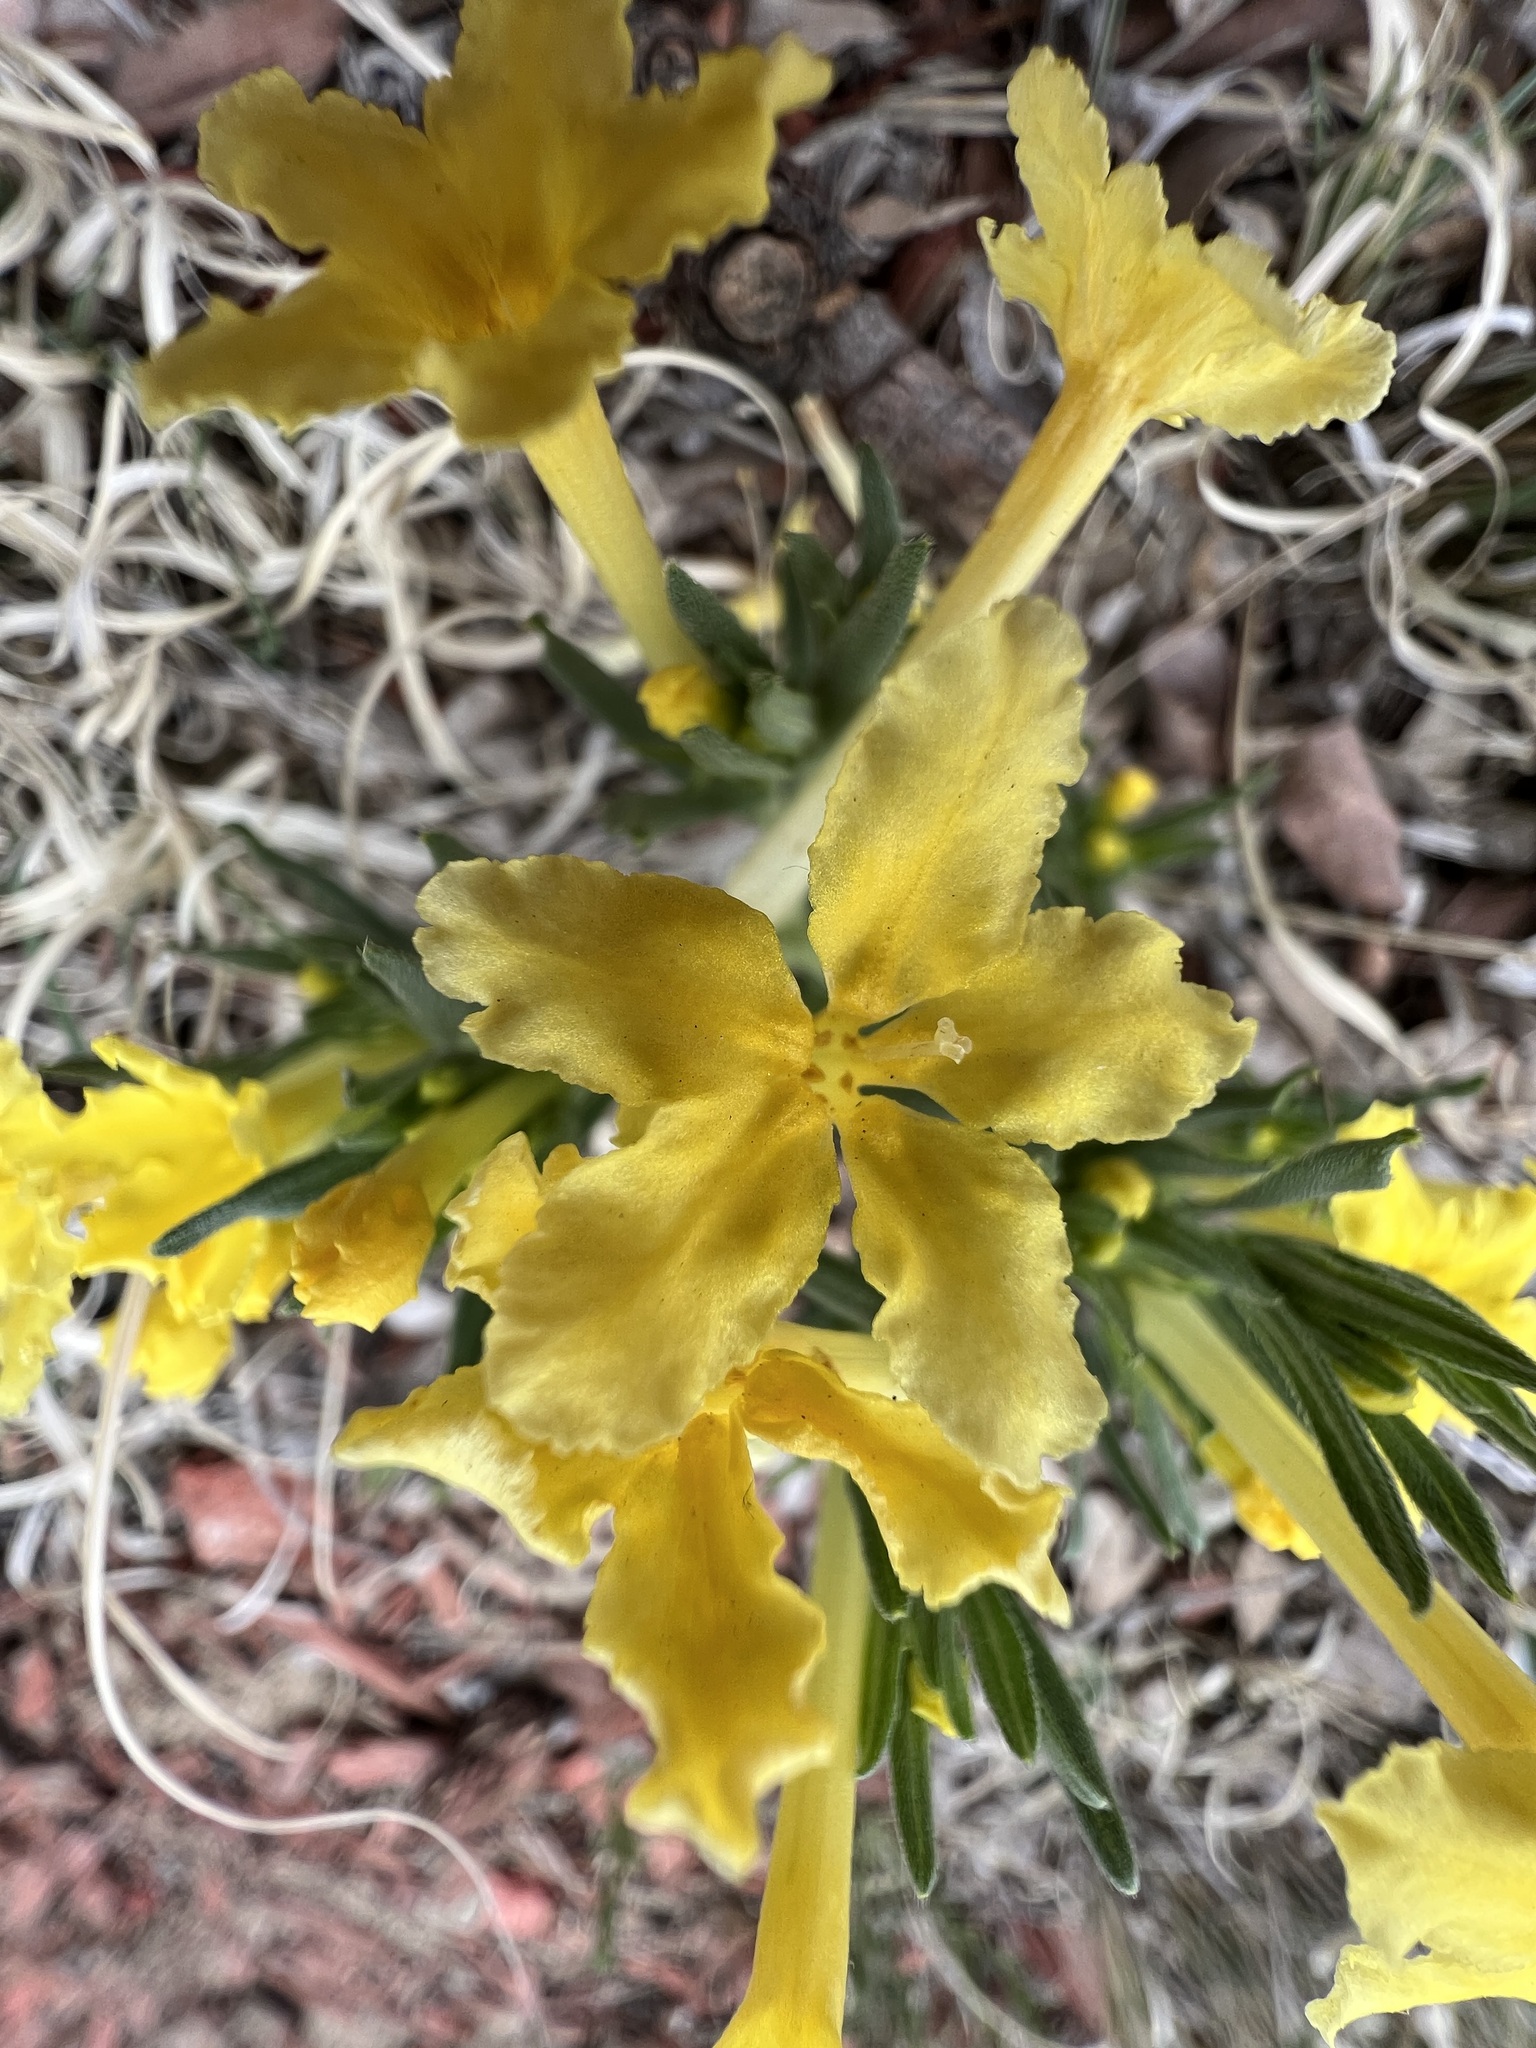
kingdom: Plantae
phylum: Tracheophyta
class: Magnoliopsida
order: Boraginales
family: Boraginaceae
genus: Lithospermum
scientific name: Lithospermum incisum
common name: Fringed gromwell
